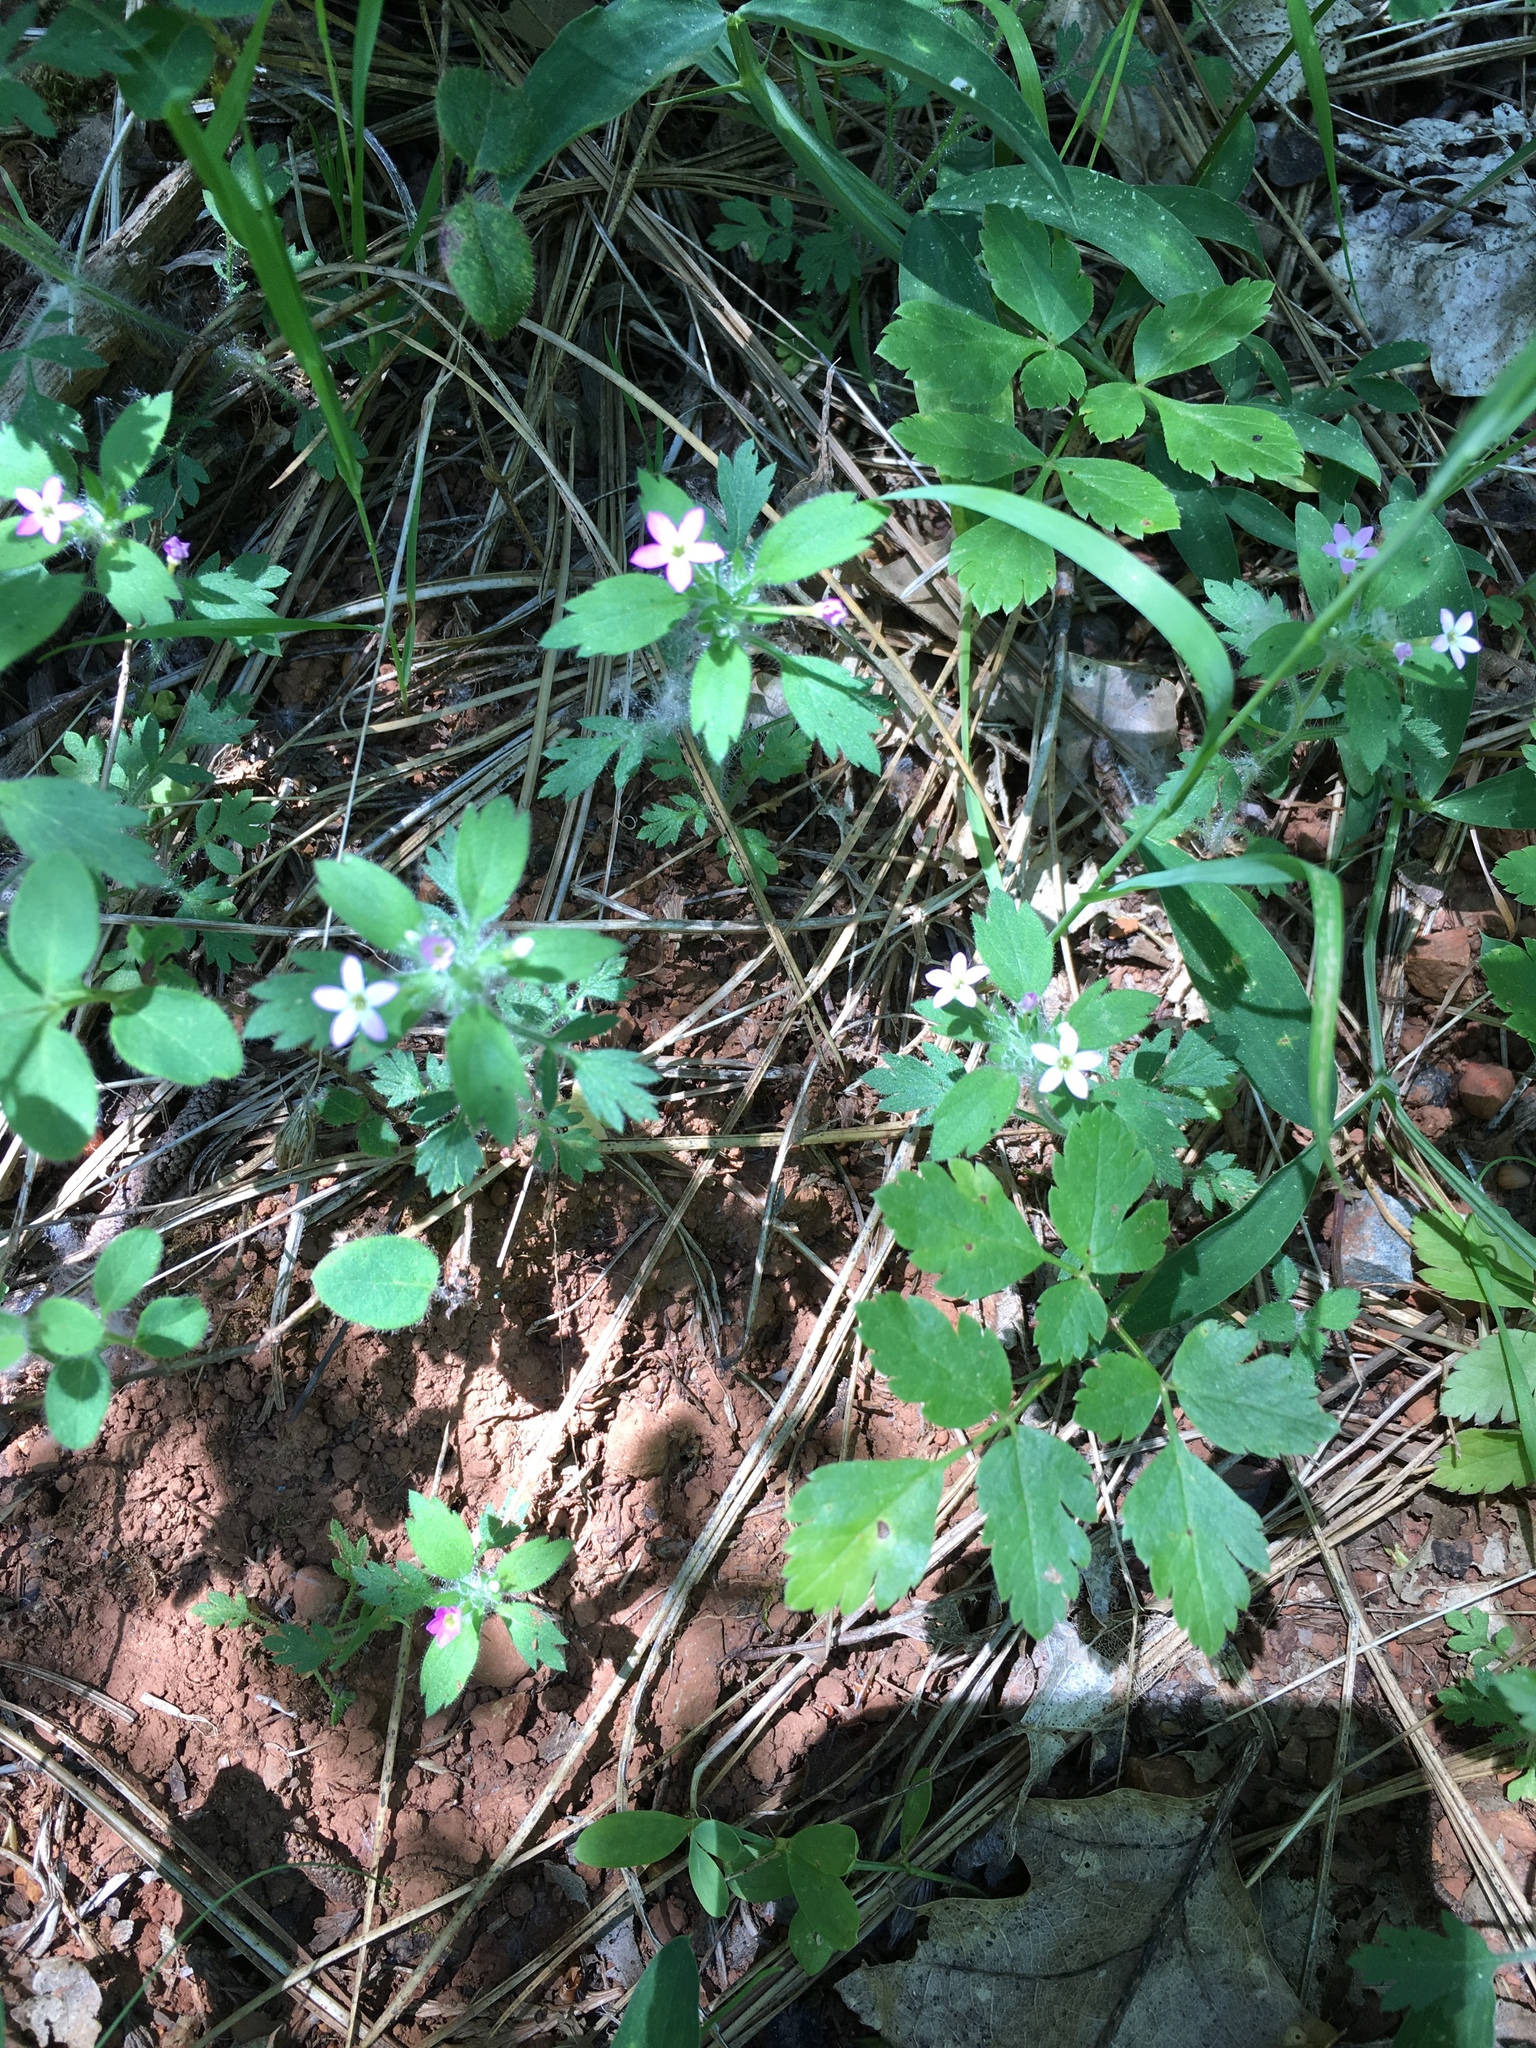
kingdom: Plantae
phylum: Tracheophyta
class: Magnoliopsida
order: Ericales
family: Polemoniaceae
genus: Collomia
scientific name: Collomia heterophylla
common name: Variable-leaved collomia
